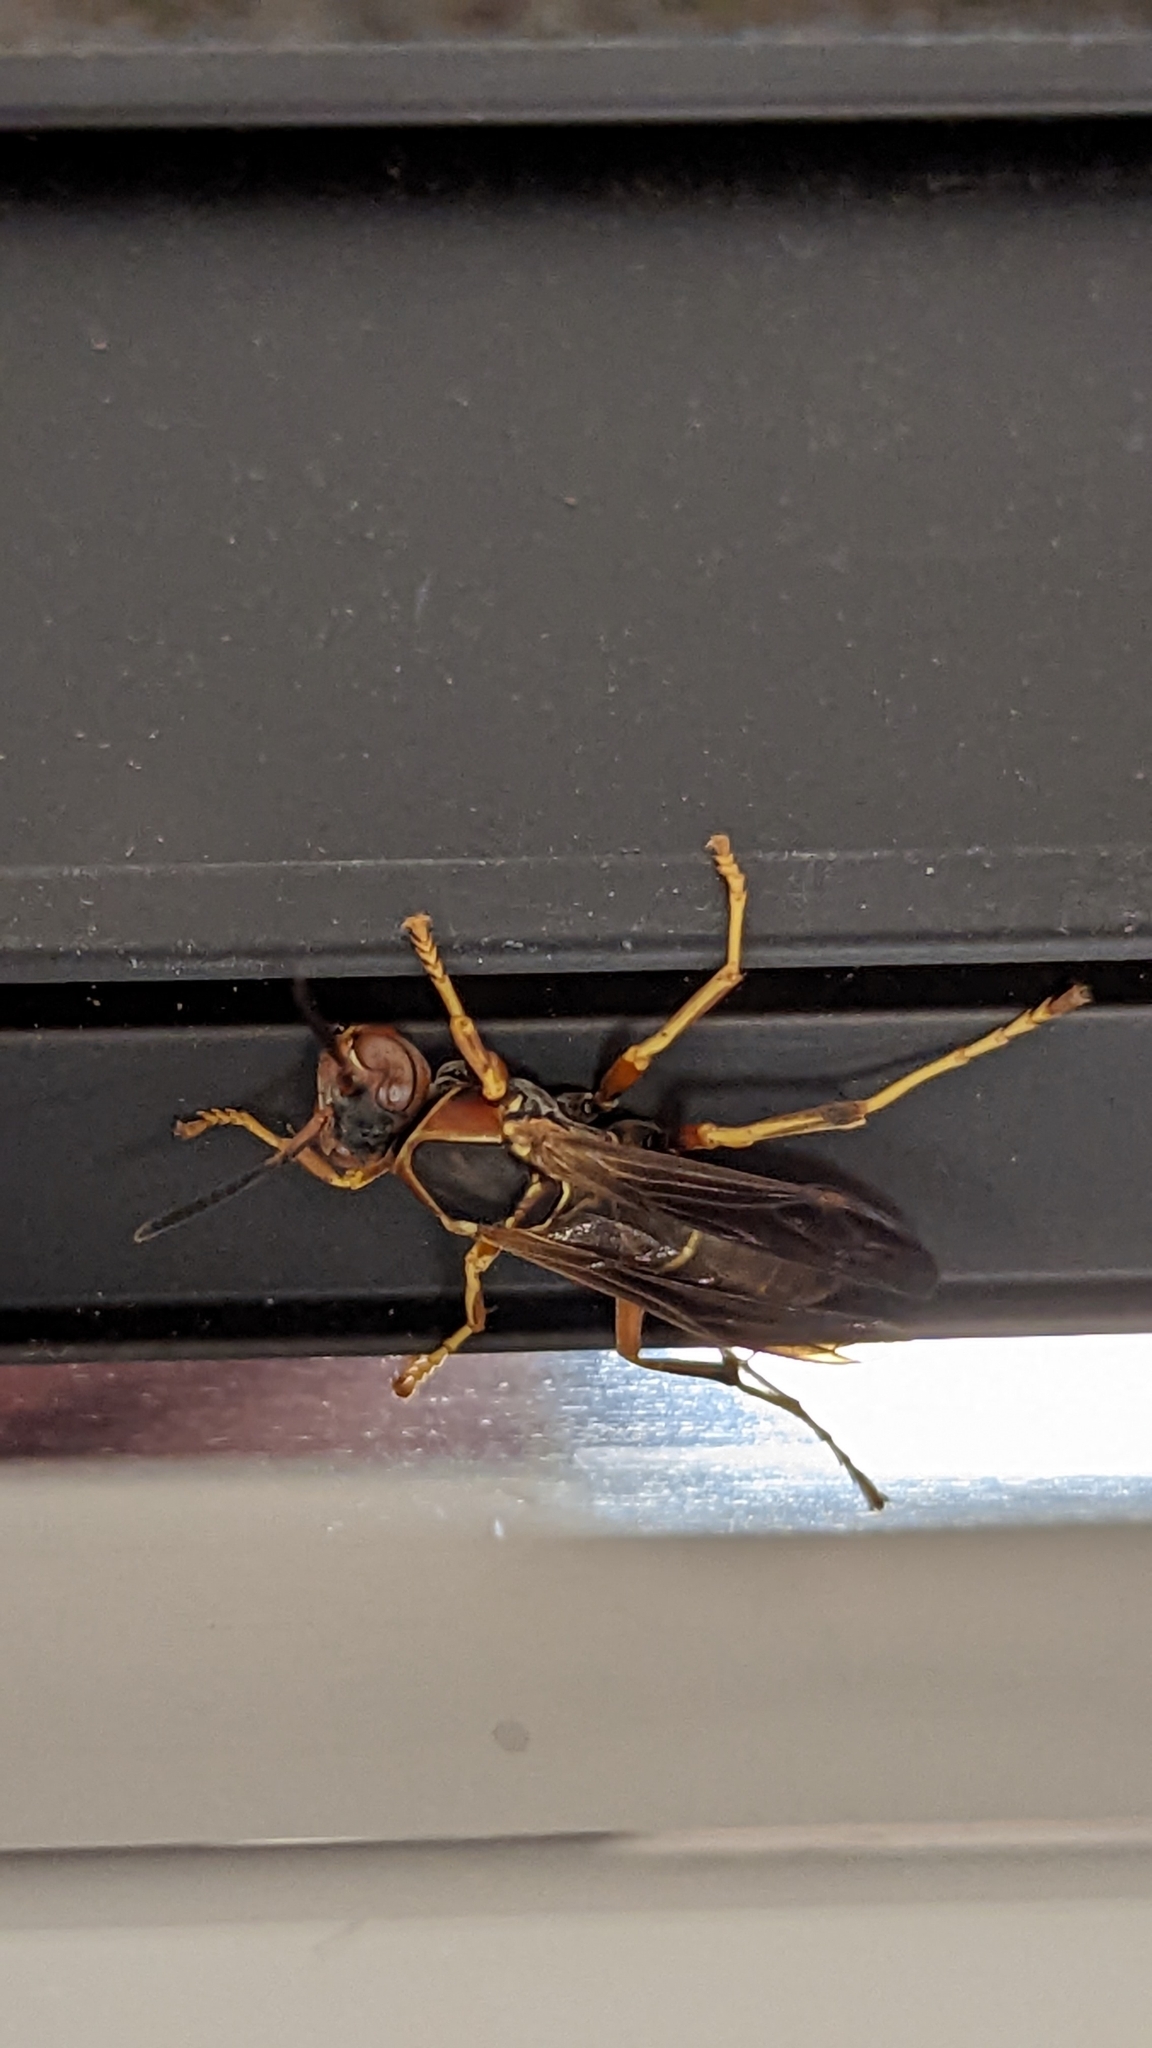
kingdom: Animalia
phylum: Arthropoda
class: Insecta
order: Hymenoptera
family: Eumenidae
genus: Polistes
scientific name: Polistes fuscatus
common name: Dark paper wasp
